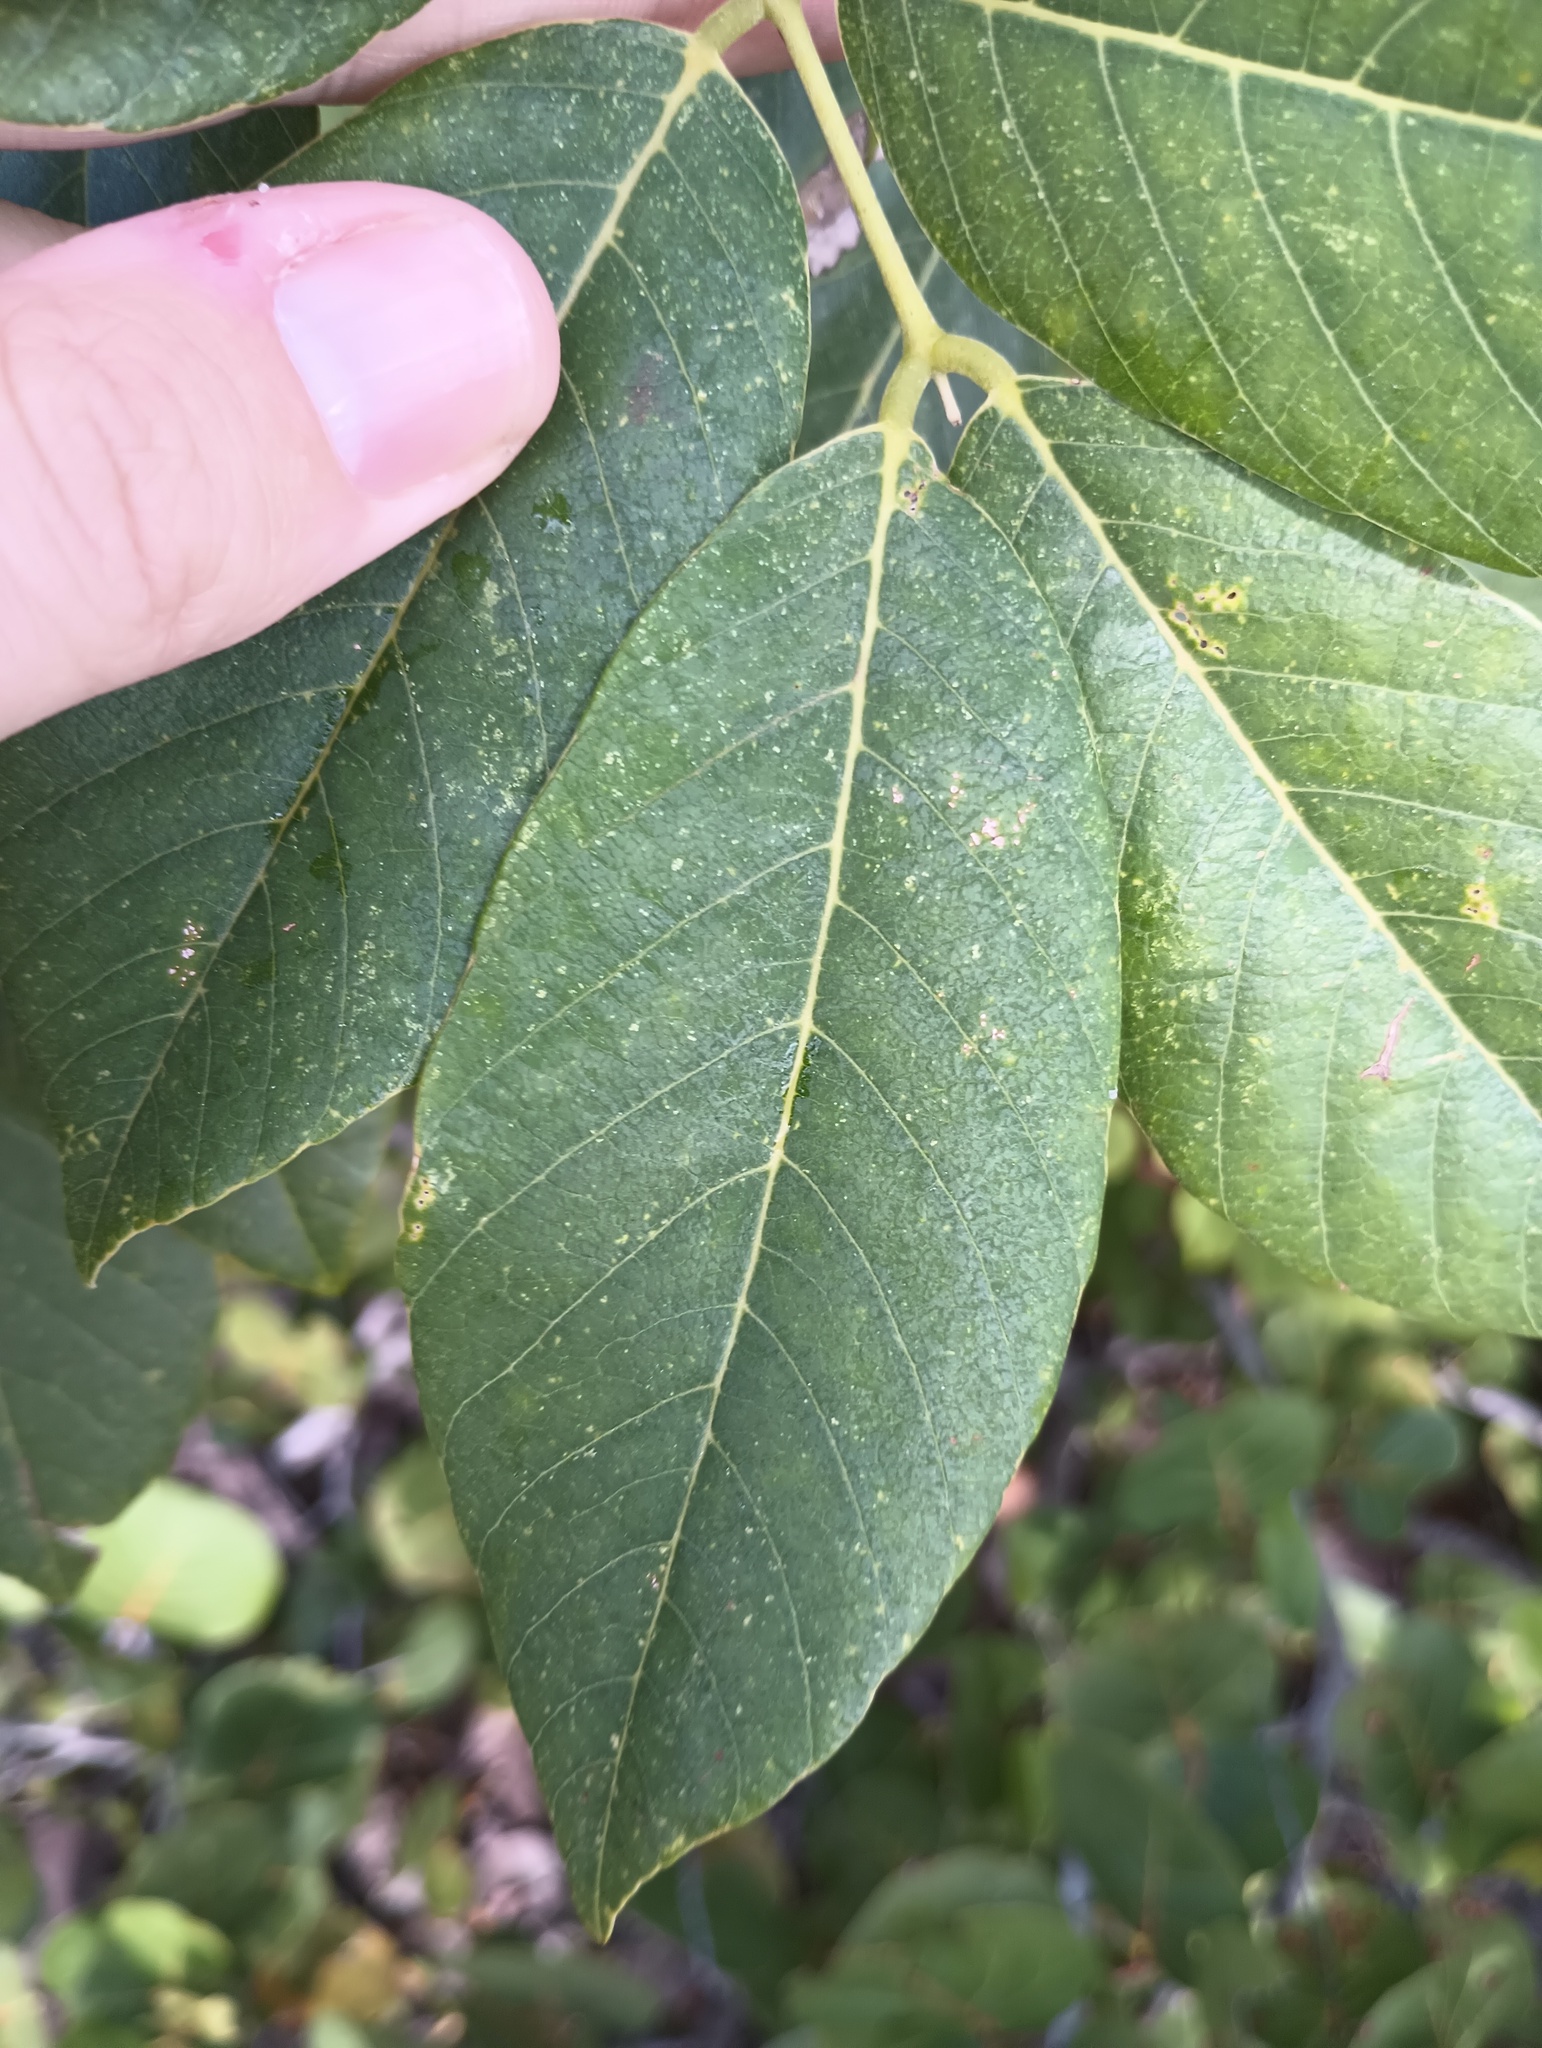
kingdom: Plantae
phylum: Tracheophyta
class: Magnoliopsida
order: Fabales
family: Fabaceae
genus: Piscidia
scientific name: Piscidia piscipula
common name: Florida fishpoison tree
